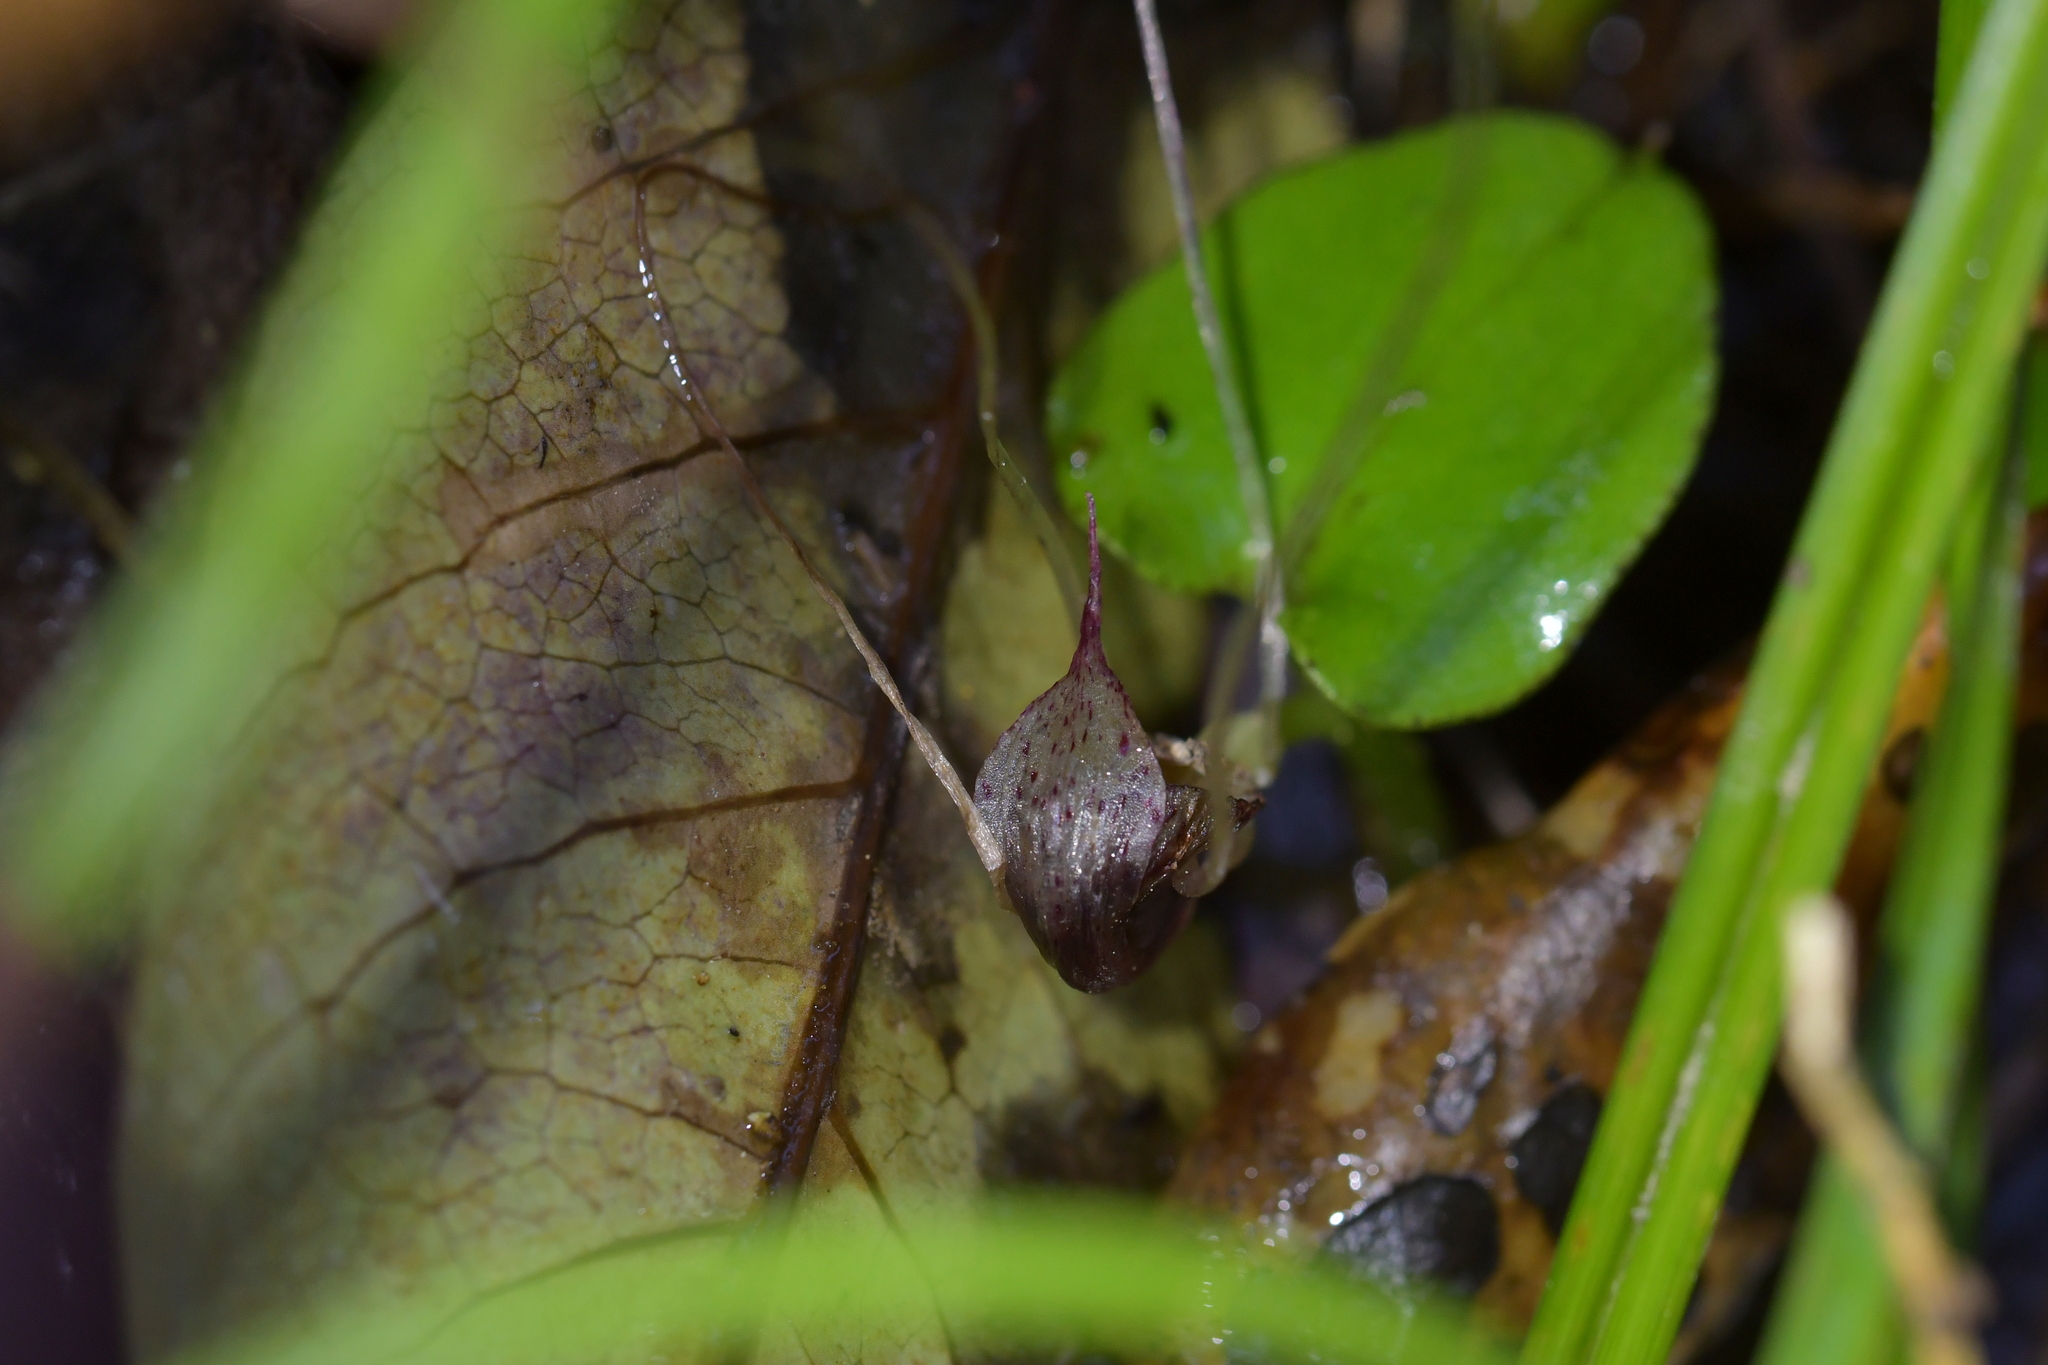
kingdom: Plantae
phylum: Tracheophyta
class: Liliopsida
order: Asparagales
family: Orchidaceae
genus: Corybas
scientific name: Corybas hatchii
